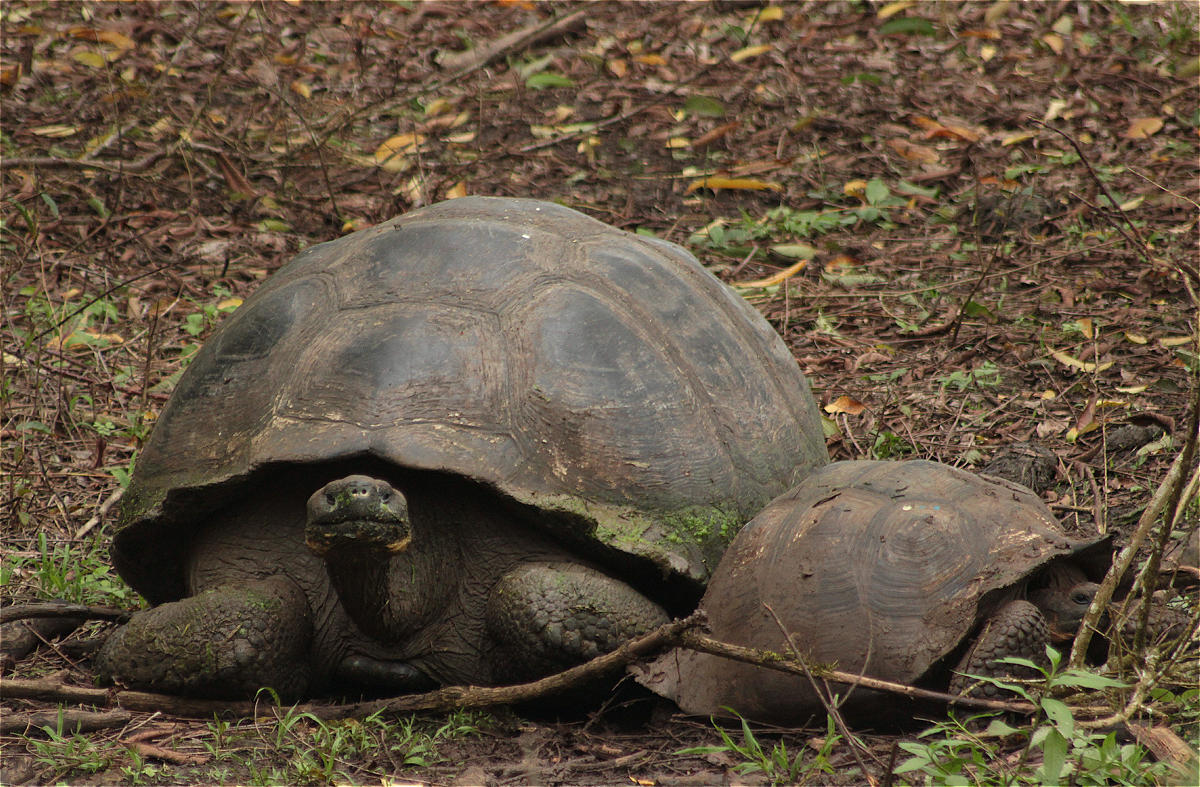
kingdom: Animalia
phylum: Chordata
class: Testudines
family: Testudinidae
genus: Chelonoidis
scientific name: Chelonoidis porteri
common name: Indefatigable island giant tortoise
